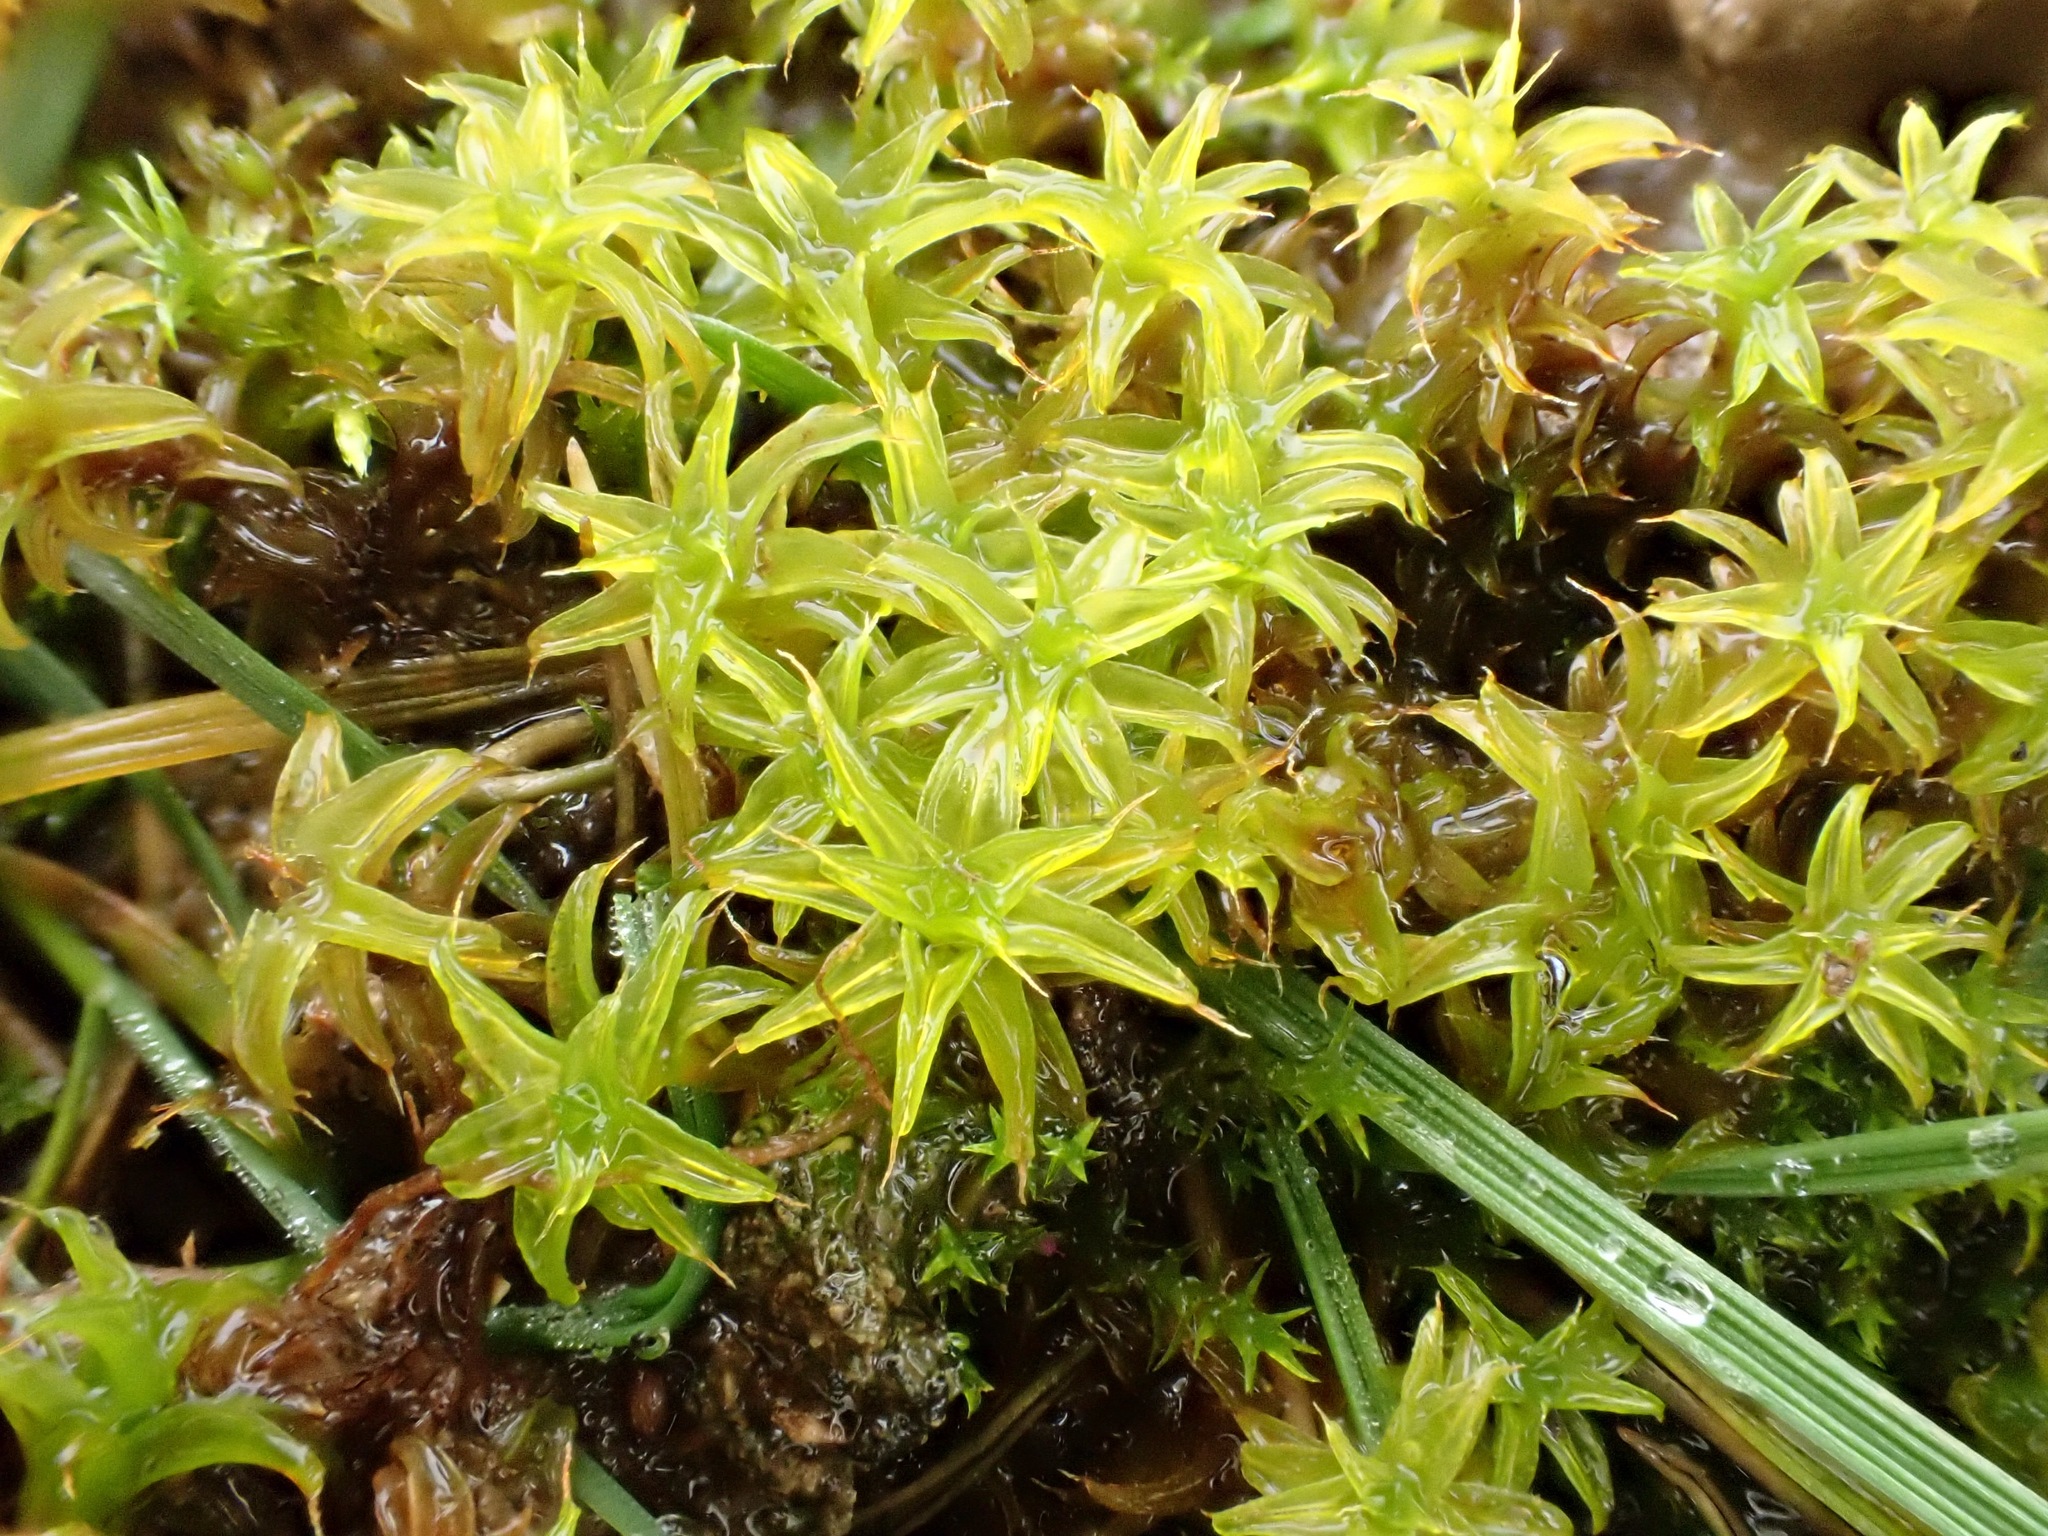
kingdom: Plantae
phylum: Bryophyta
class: Bryopsida
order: Pottiales
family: Pottiaceae
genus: Syntrichia
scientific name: Syntrichia ruralis
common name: Sidewalk screw moss
